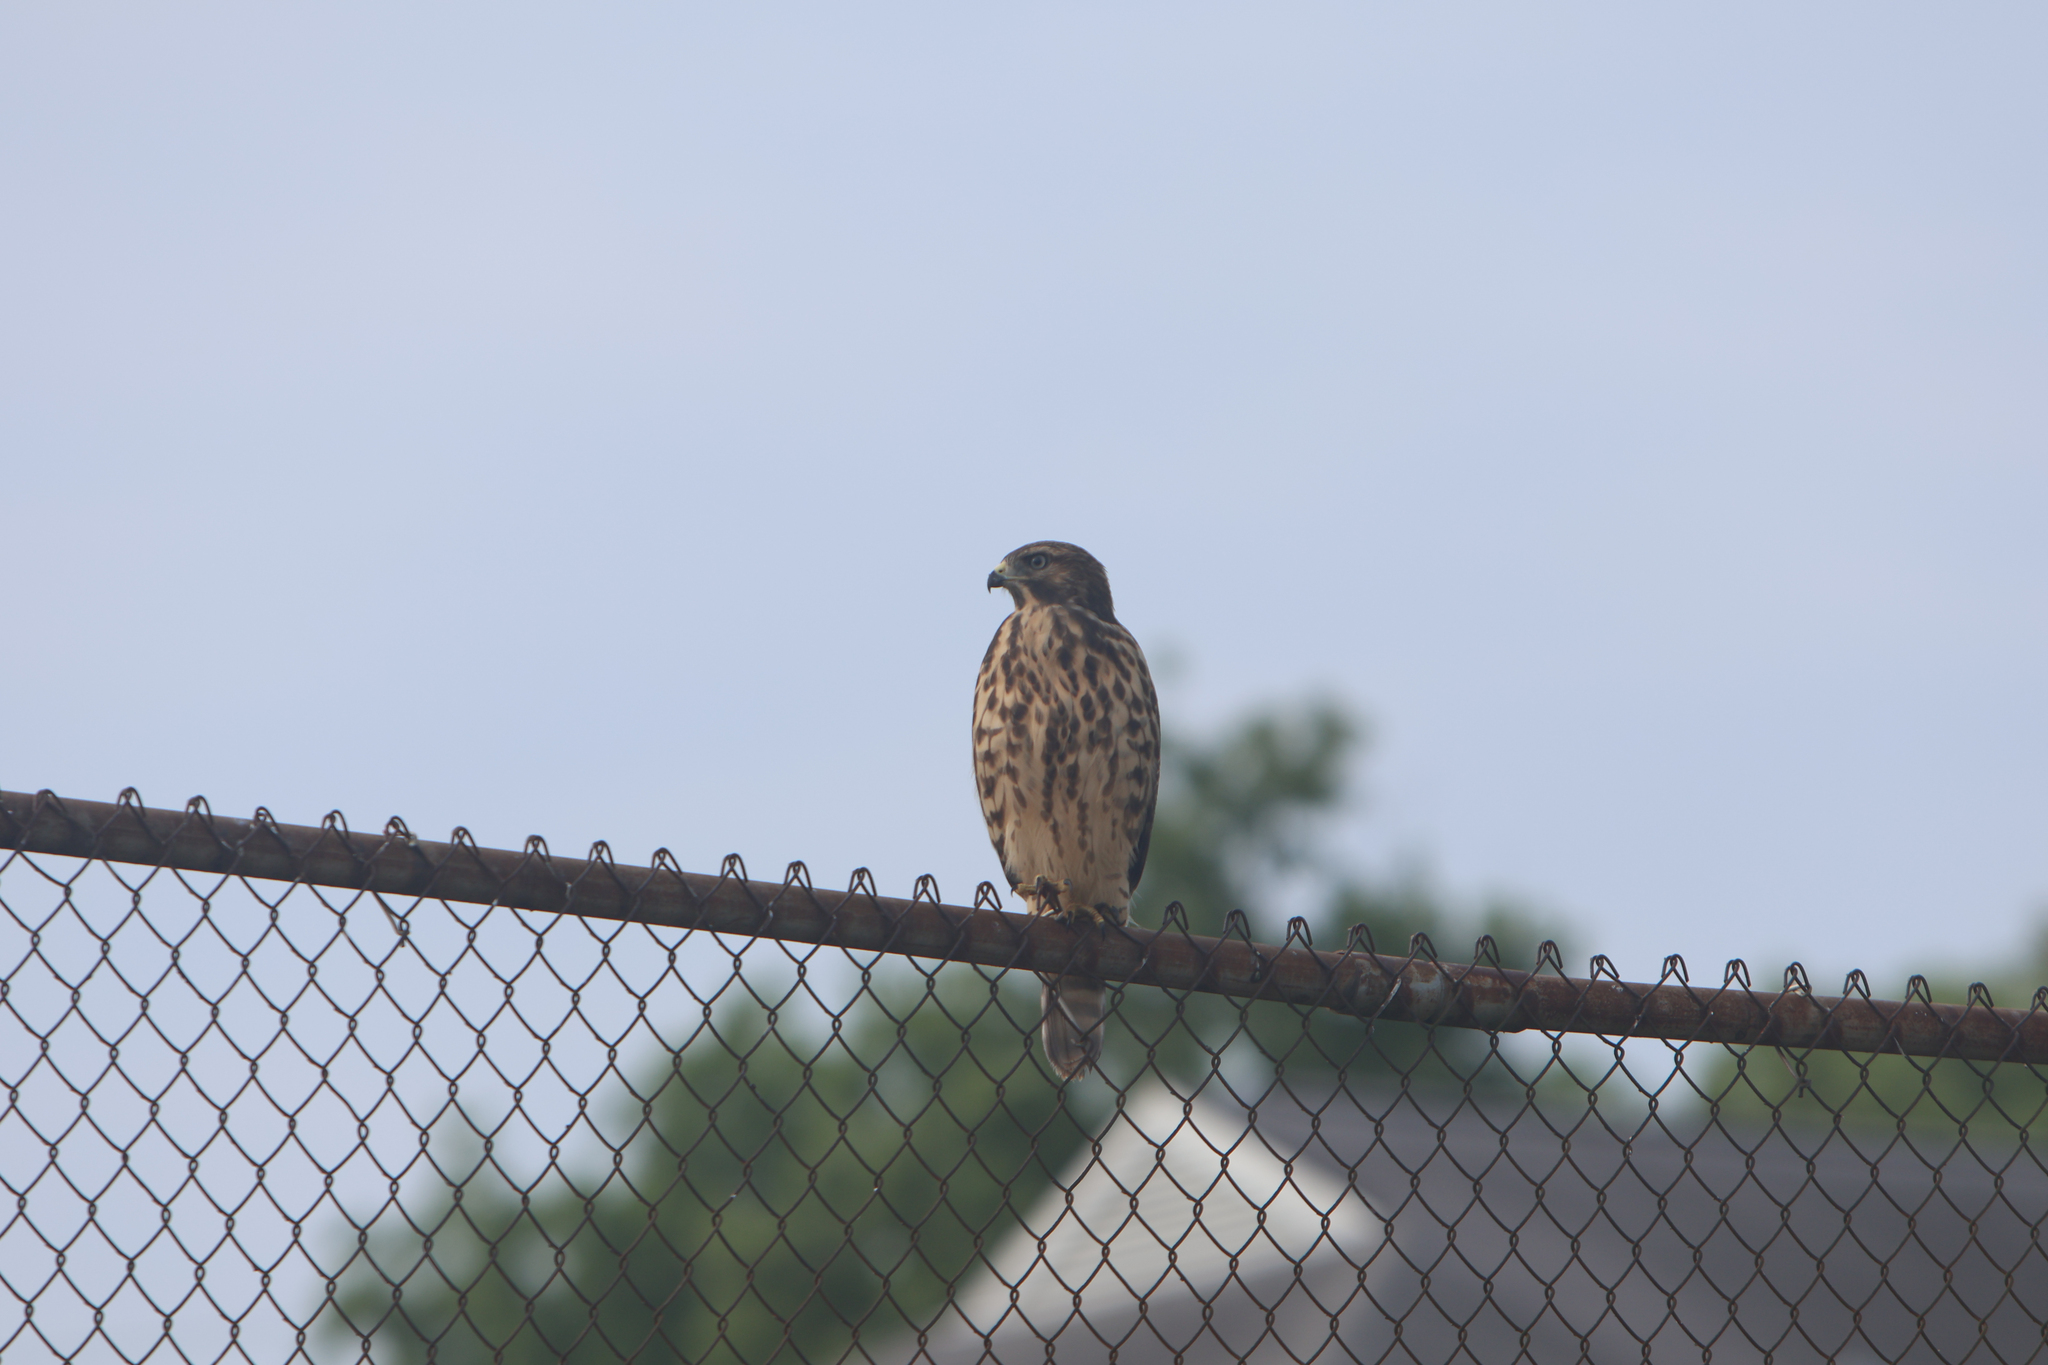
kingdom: Animalia
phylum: Chordata
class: Aves
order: Accipitriformes
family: Accipitridae
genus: Buteo
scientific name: Buteo lineatus
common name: Red-shouldered hawk
